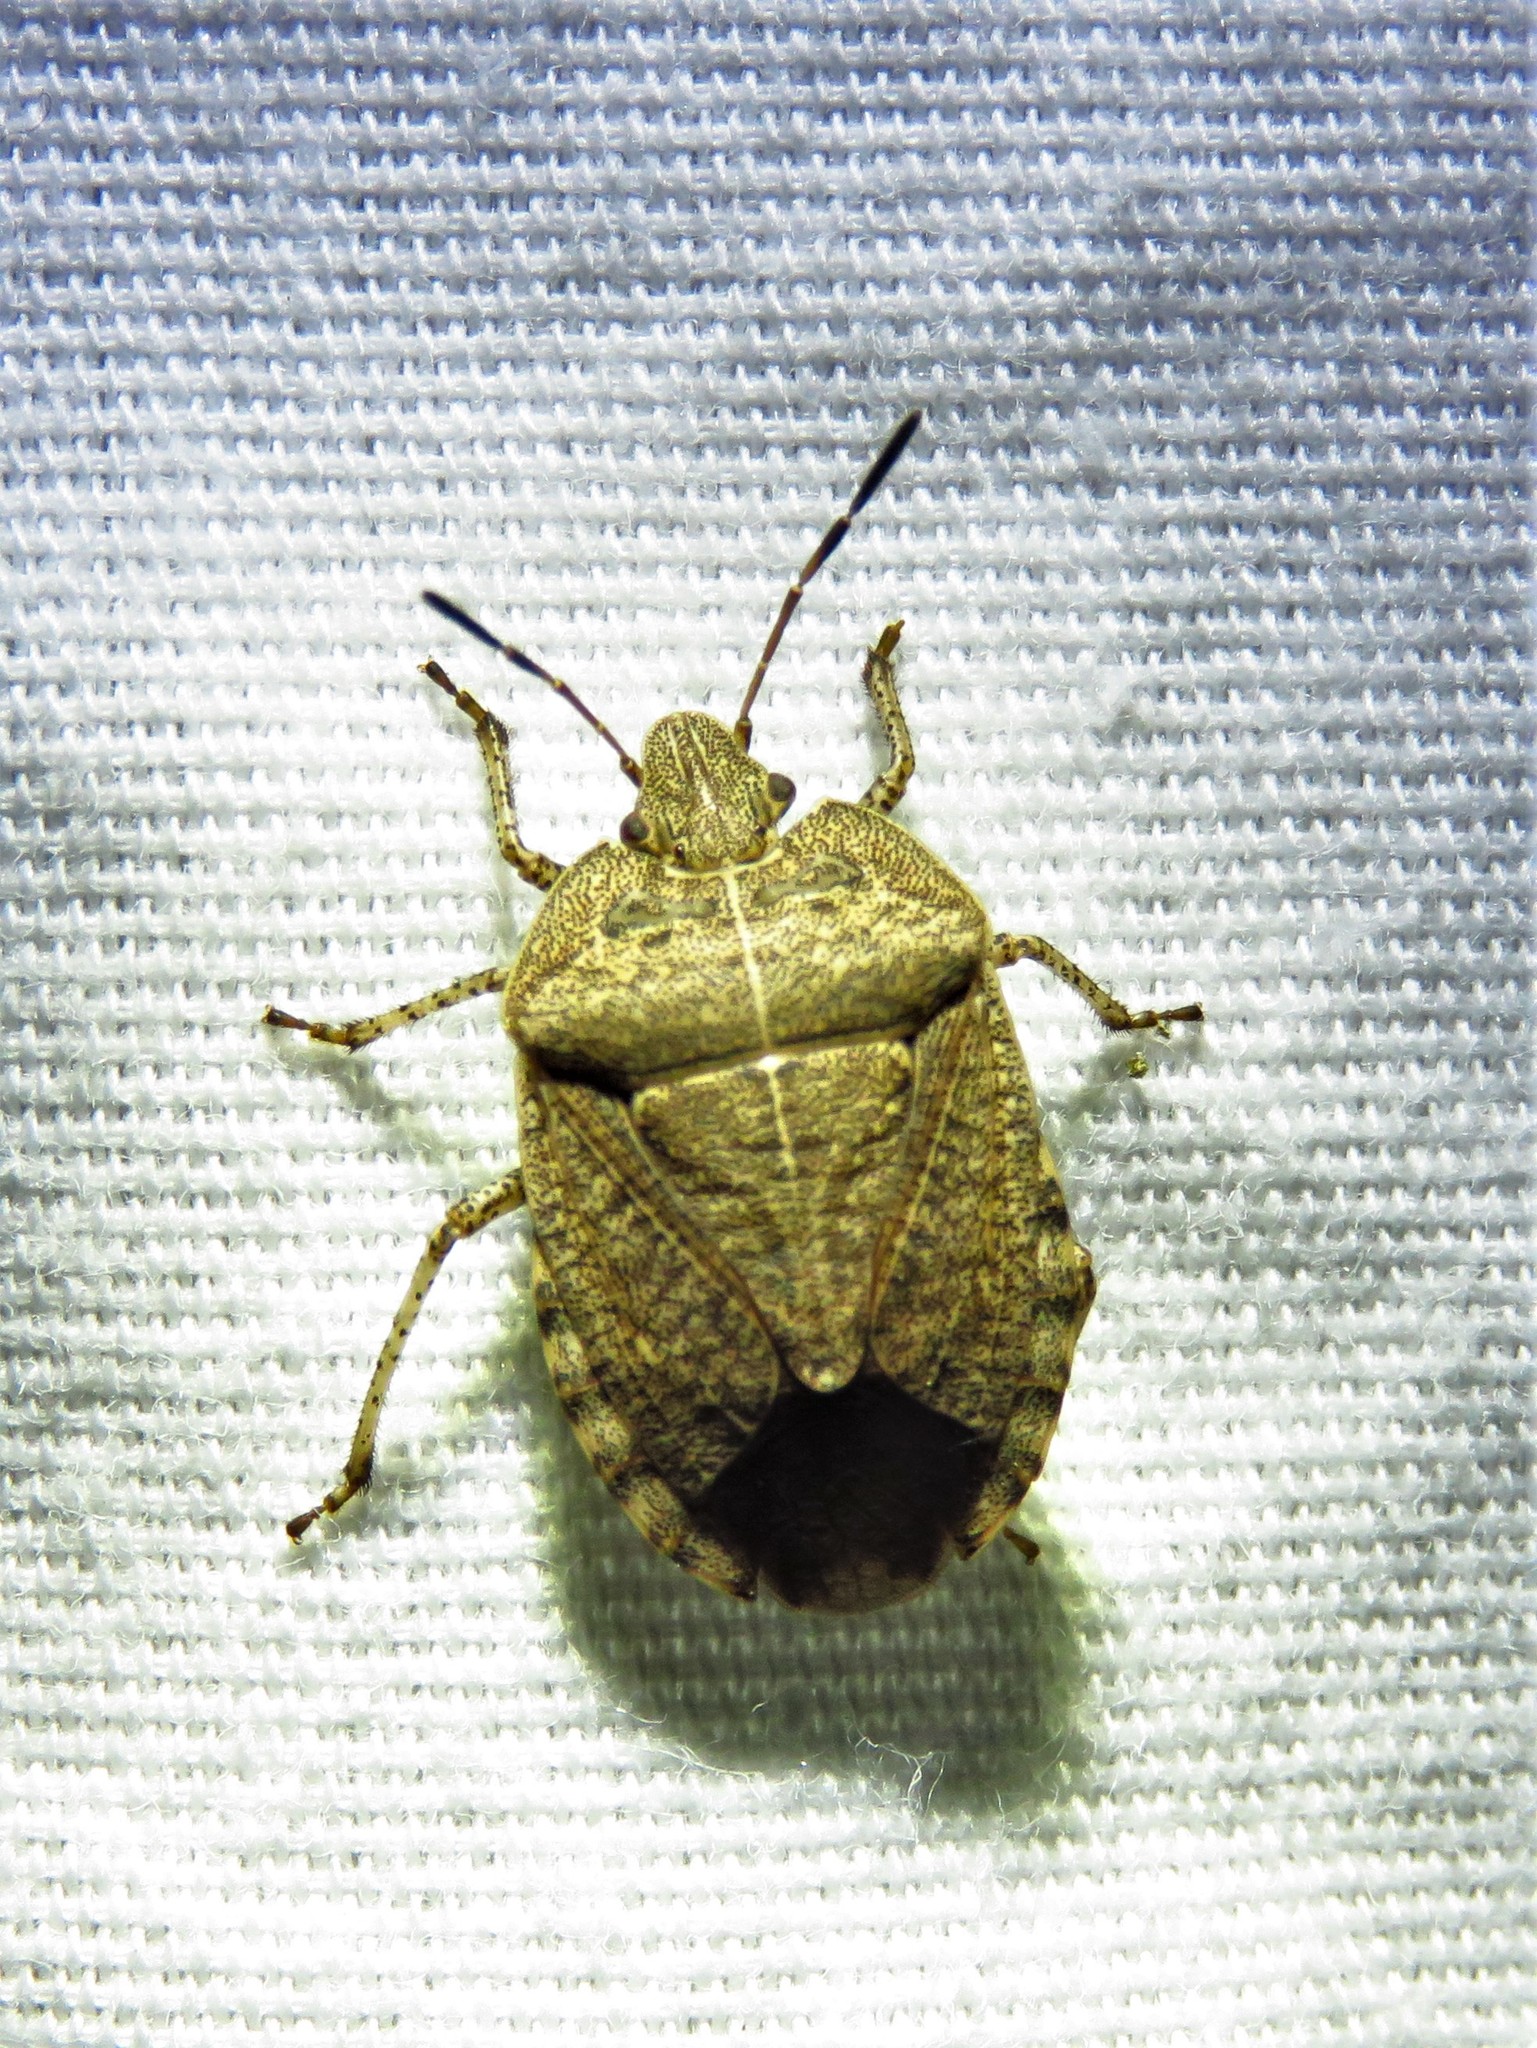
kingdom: Animalia
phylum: Arthropoda
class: Insecta
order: Hemiptera
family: Pentatomidae
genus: Menecles
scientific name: Menecles insertus
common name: Elf shoe stink bug
